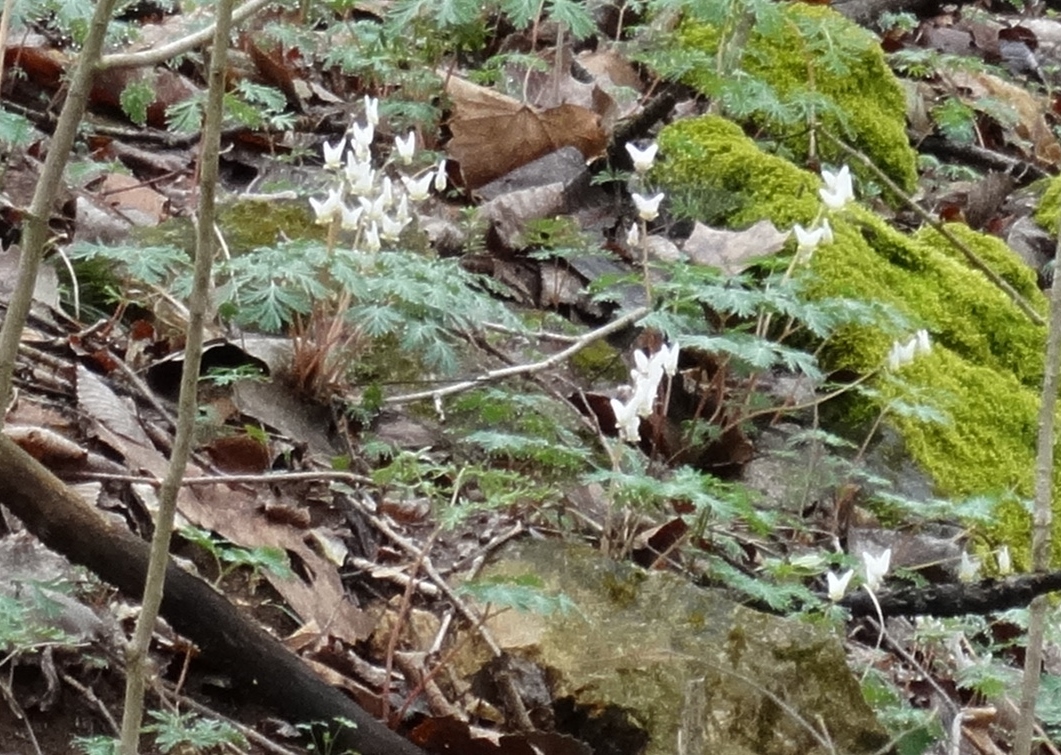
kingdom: Plantae
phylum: Tracheophyta
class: Magnoliopsida
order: Ranunculales
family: Papaveraceae
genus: Dicentra
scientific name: Dicentra cucullaria
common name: Dutchman's breeches
